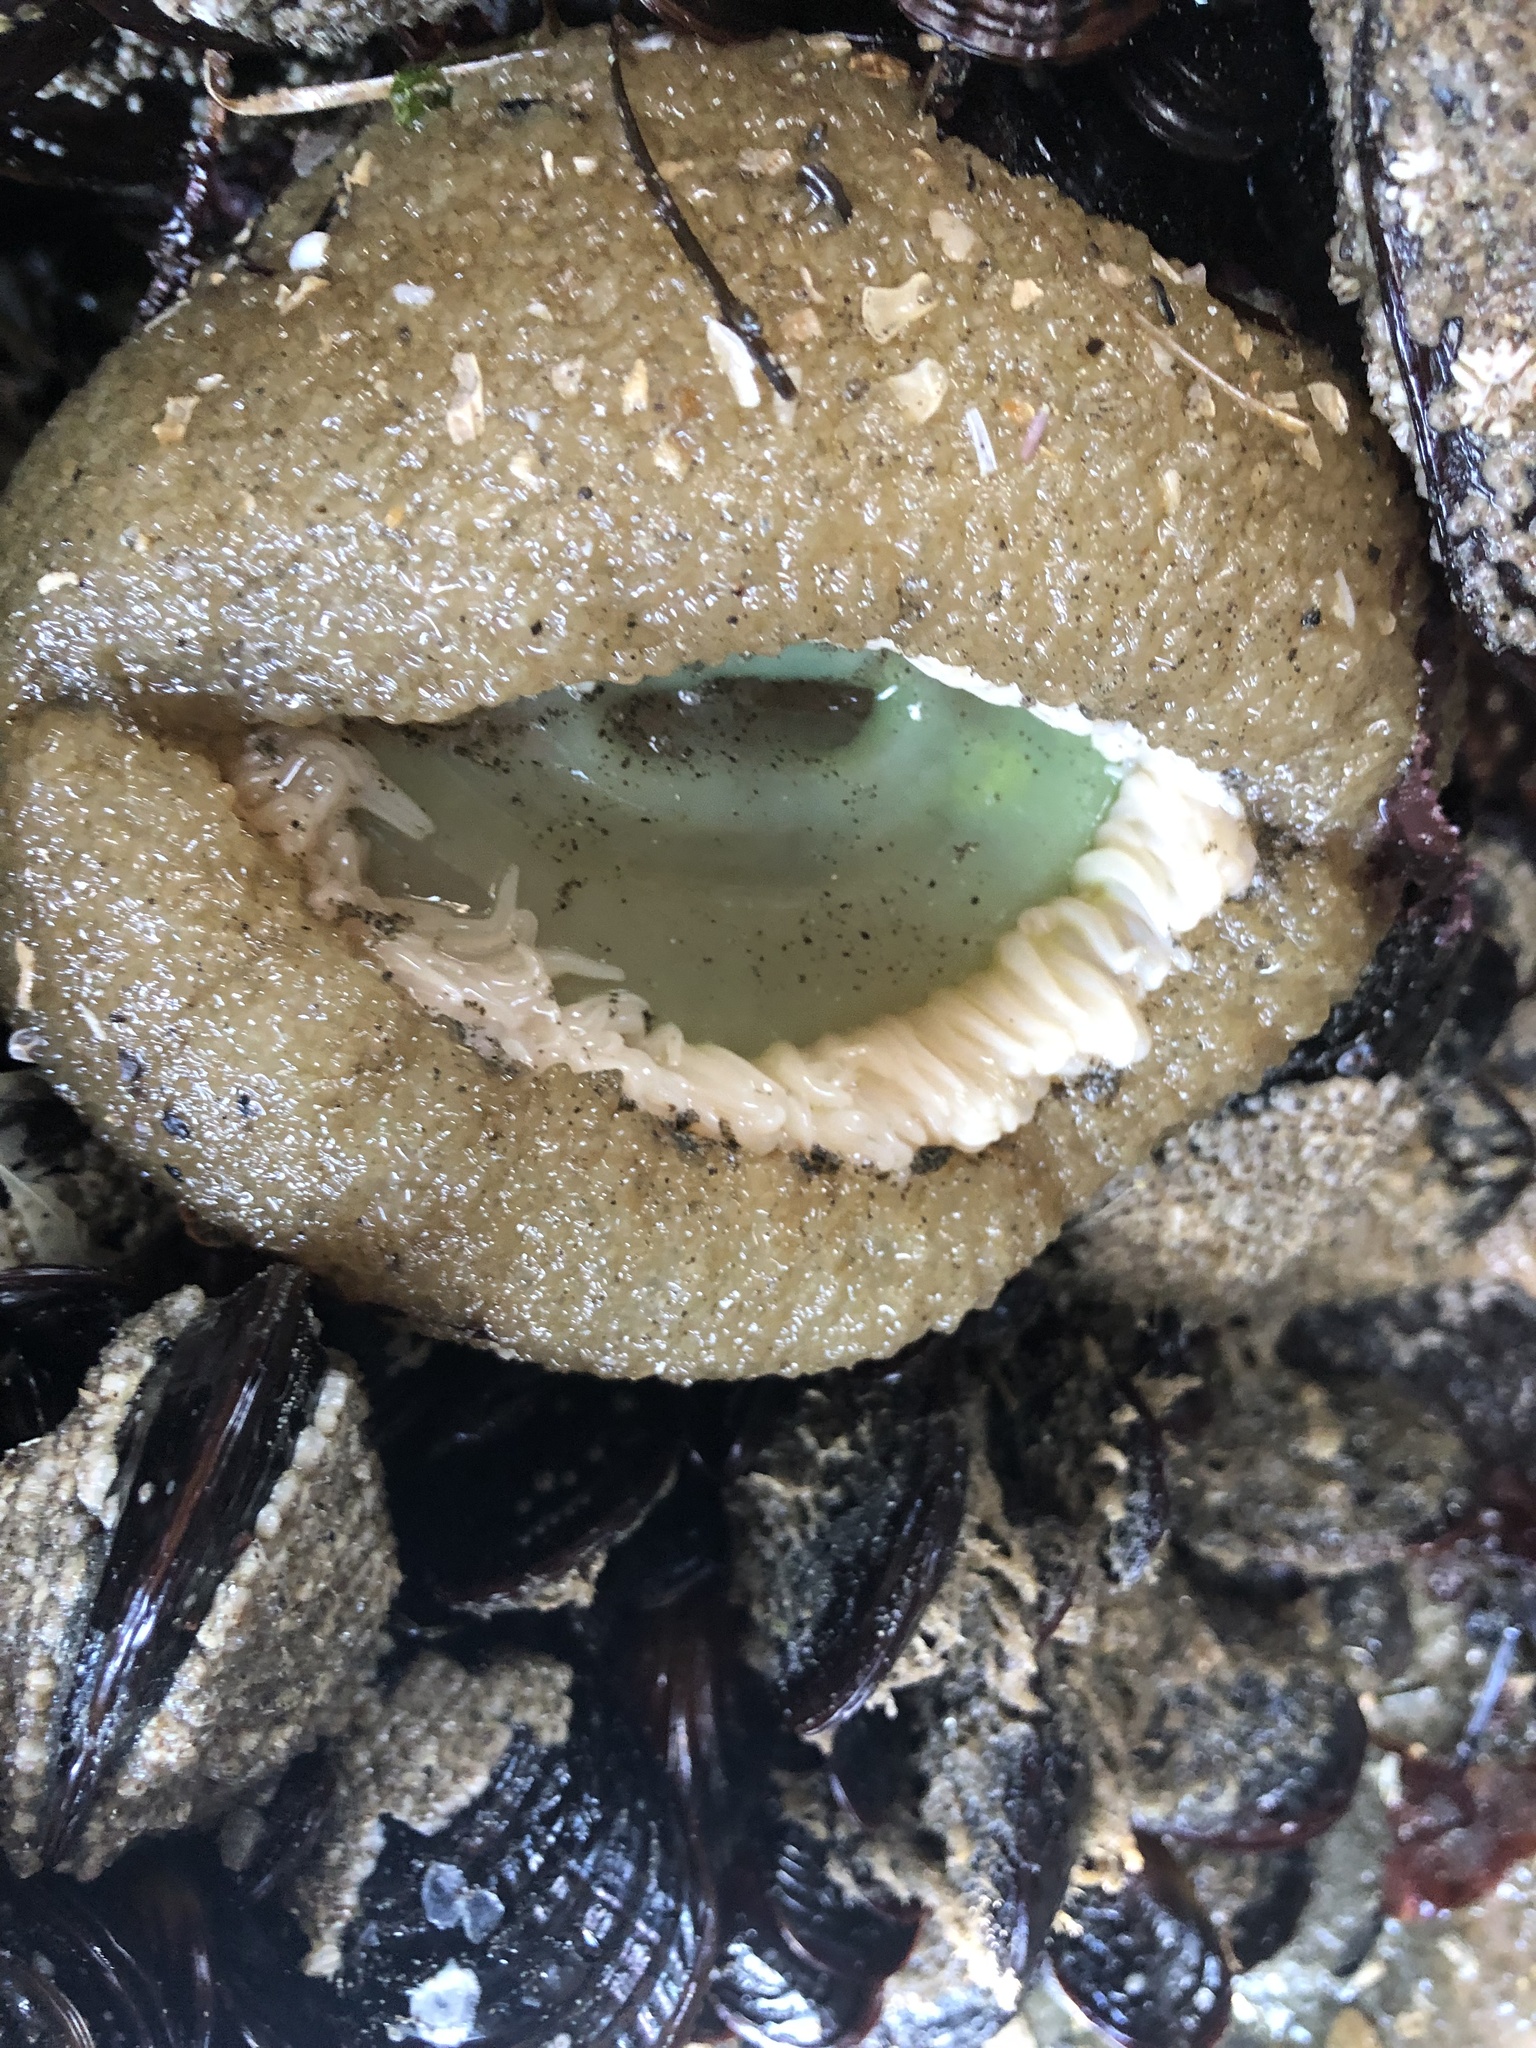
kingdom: Animalia
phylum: Cnidaria
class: Anthozoa
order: Actiniaria
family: Actiniidae
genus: Anthopleura
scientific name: Anthopleura xanthogrammica
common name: Giant green anemone
